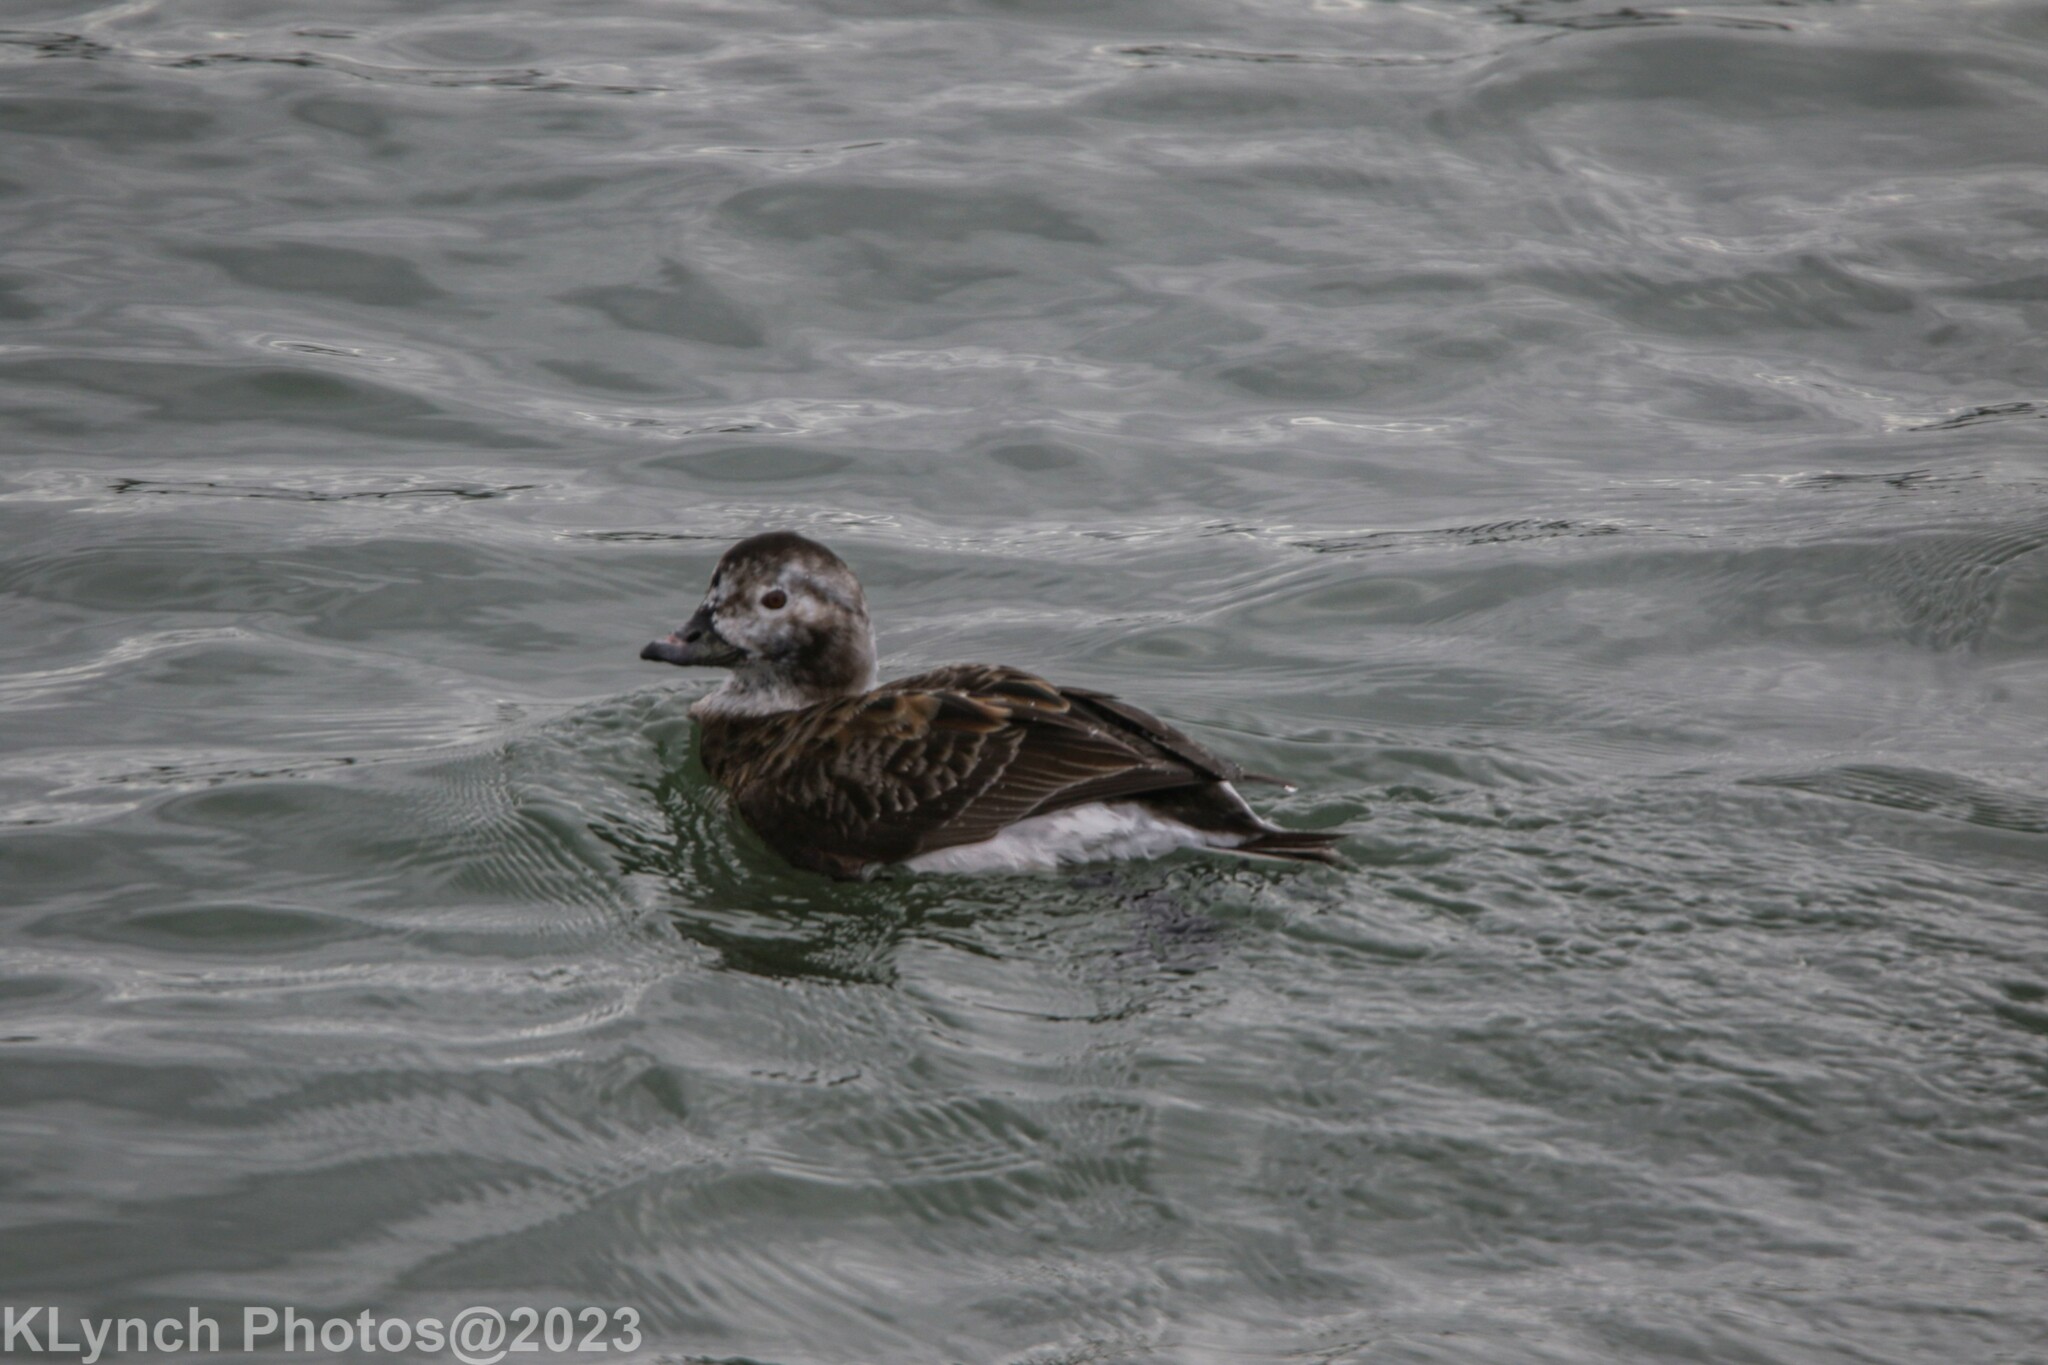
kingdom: Animalia
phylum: Chordata
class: Aves
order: Anseriformes
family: Anatidae
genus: Clangula
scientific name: Clangula hyemalis
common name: Long-tailed duck
